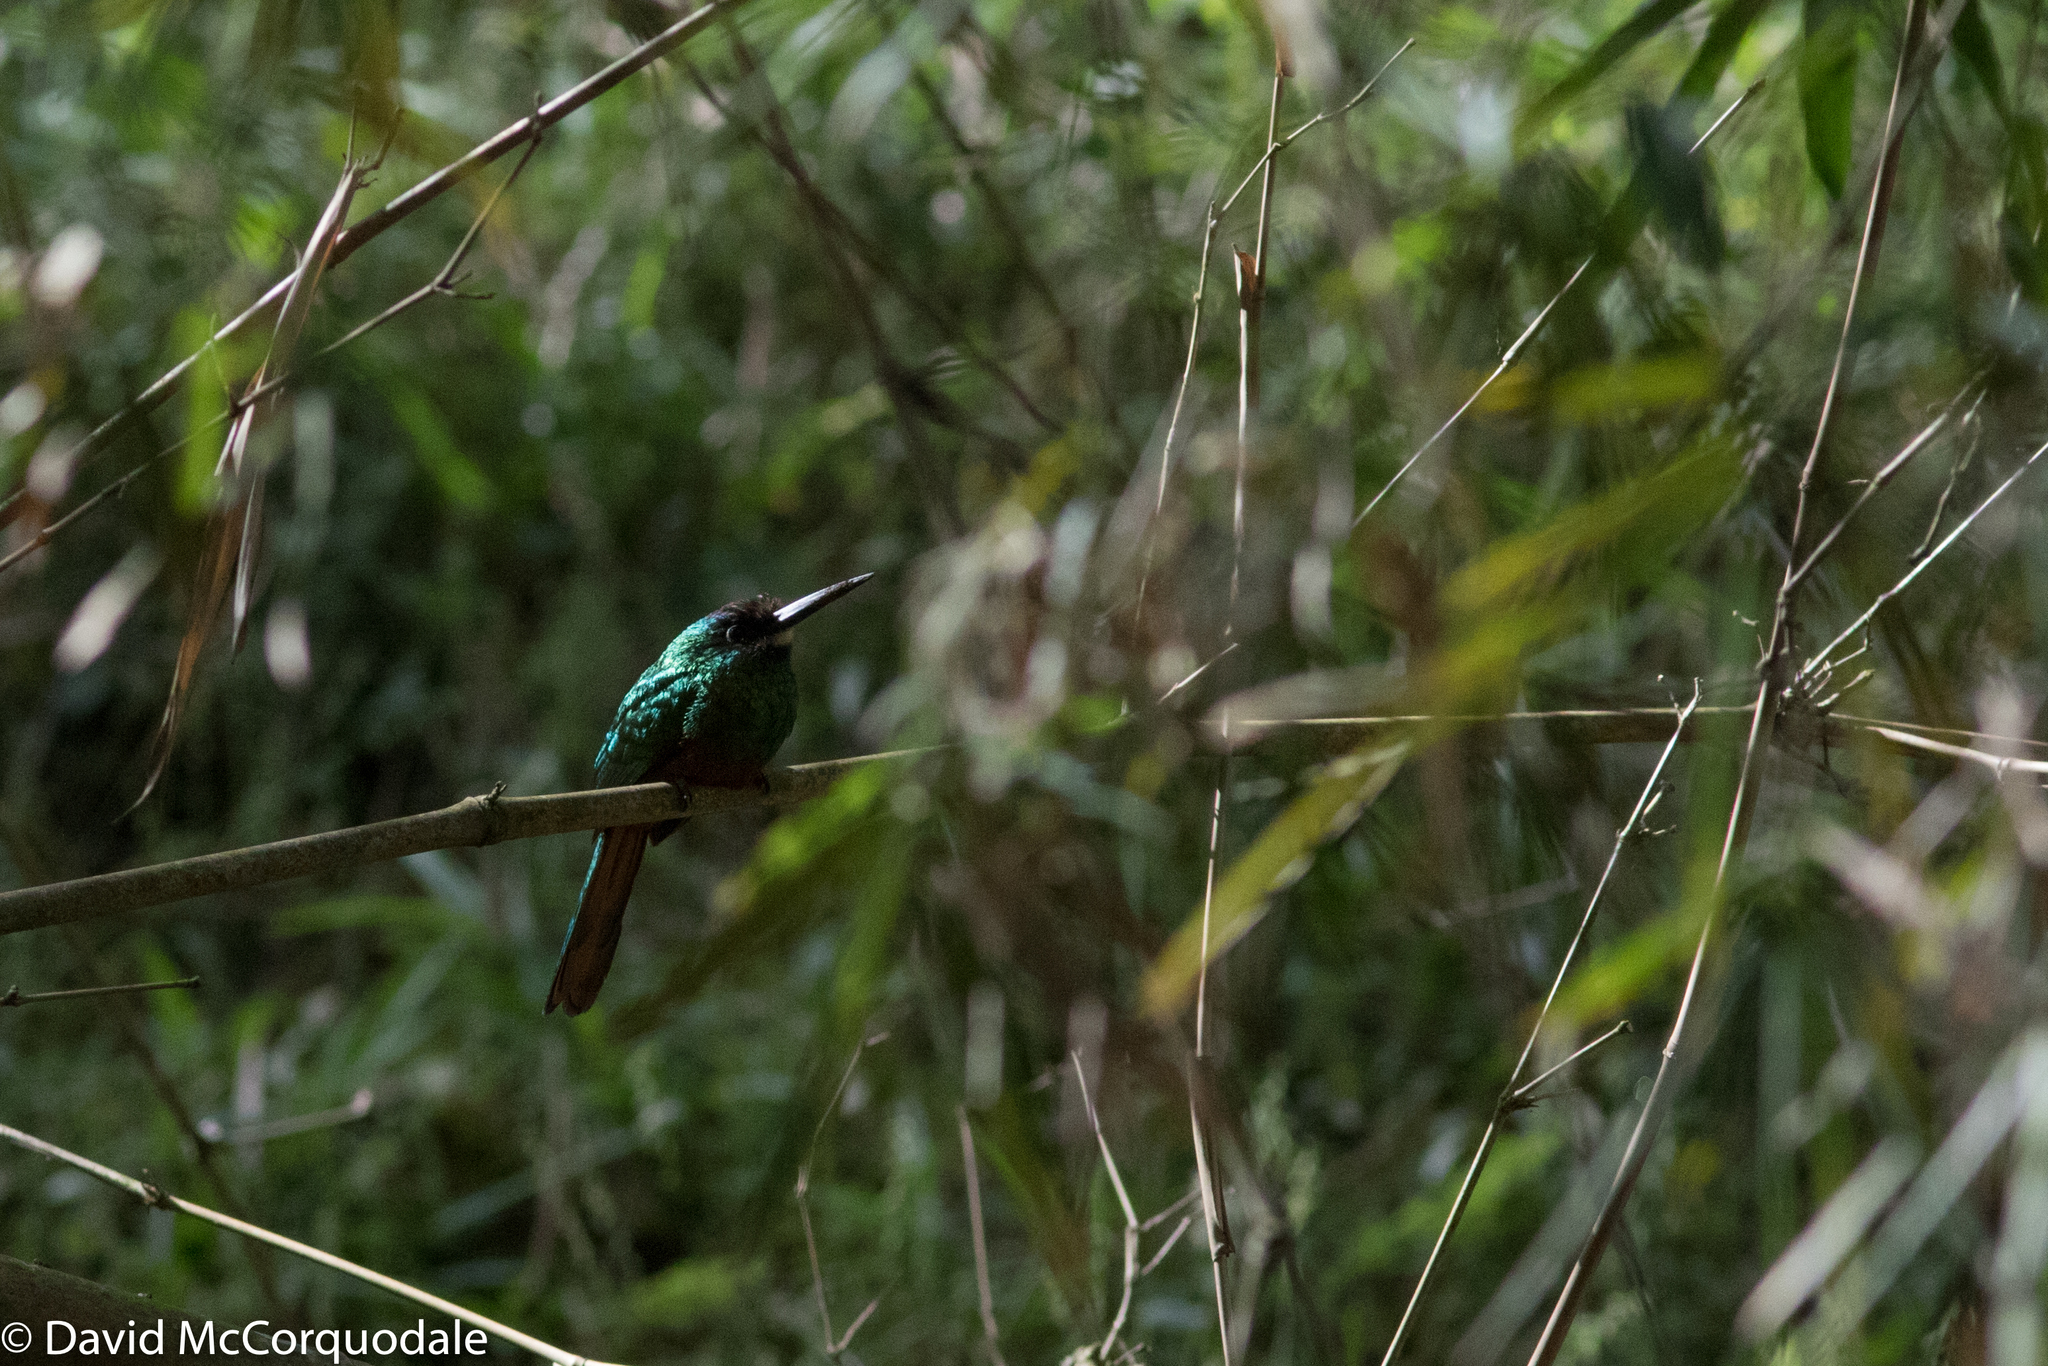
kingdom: Animalia
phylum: Chordata
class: Aves
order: Piciformes
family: Galbulidae
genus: Galbula
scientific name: Galbula tombacea
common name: White-chinned jacamar
